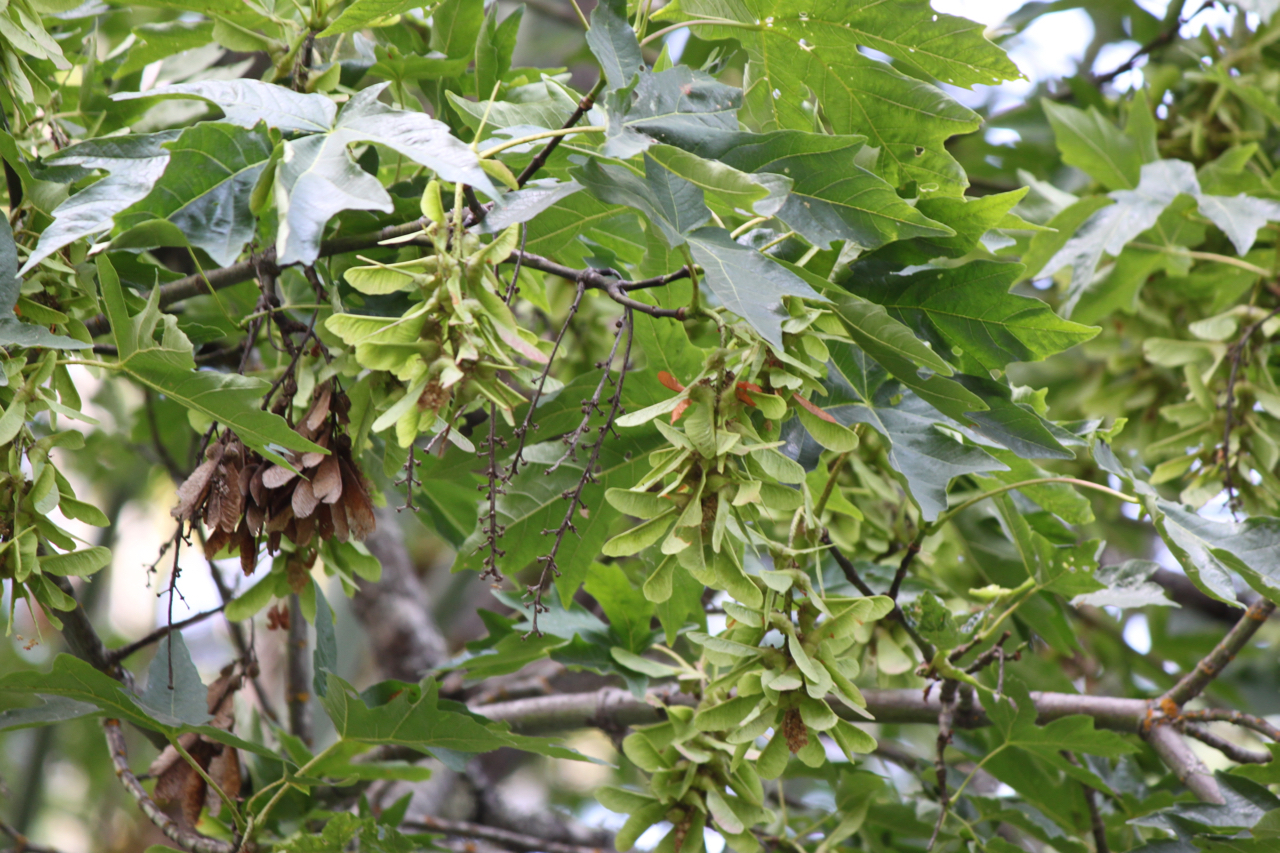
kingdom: Plantae
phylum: Tracheophyta
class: Magnoliopsida
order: Sapindales
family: Sapindaceae
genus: Acer
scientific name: Acer macrophyllum
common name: Oregon maple
